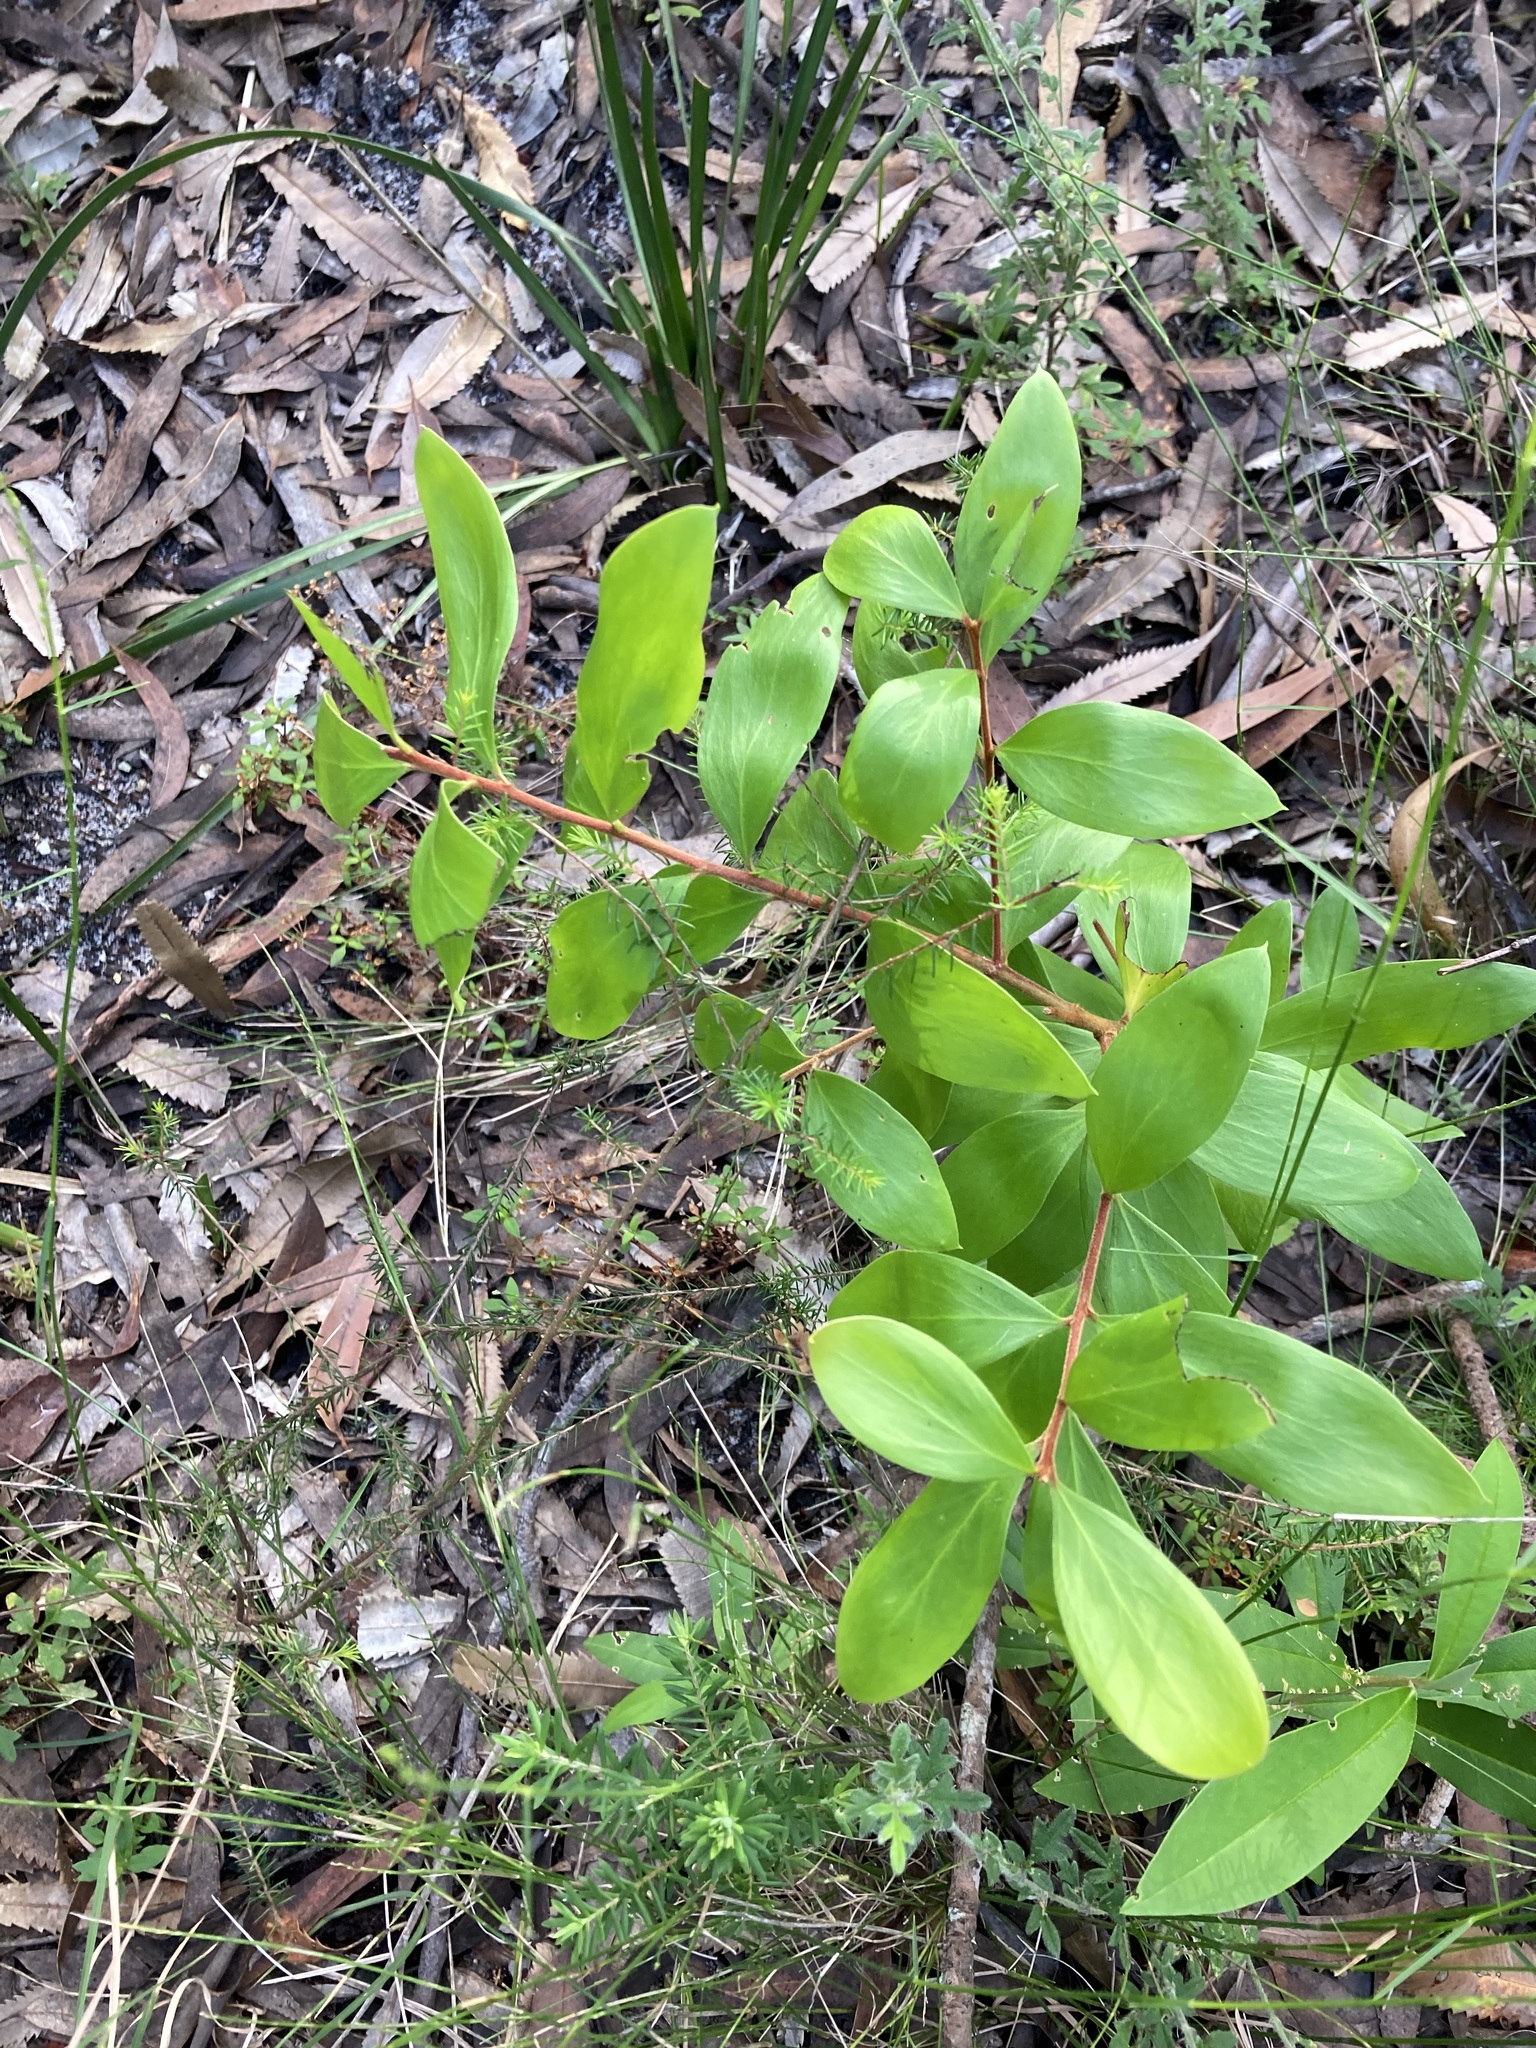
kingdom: Plantae
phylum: Tracheophyta
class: Magnoliopsida
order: Proteales
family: Proteaceae
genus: Persoonia
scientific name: Persoonia levis
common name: Smooth geebung
